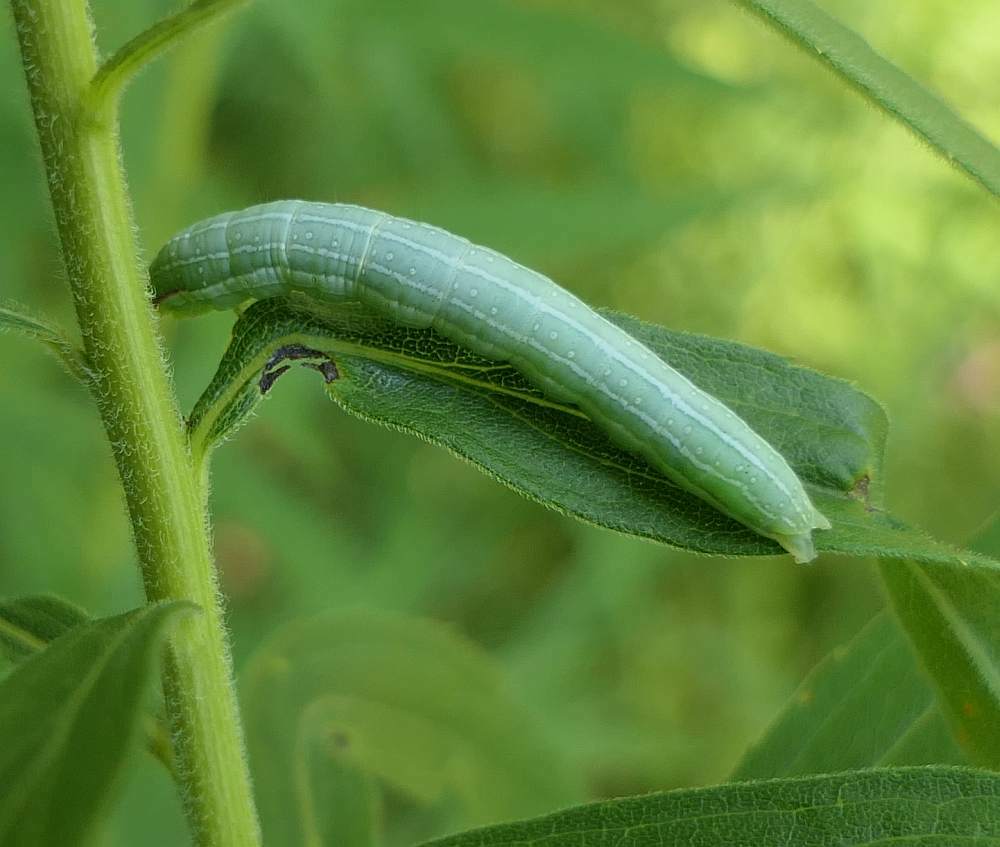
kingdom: Animalia
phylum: Arthropoda
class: Insecta
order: Lepidoptera
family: Noctuidae
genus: Leuconycta
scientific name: Leuconycta diphteroides
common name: Green leuconycta moth
